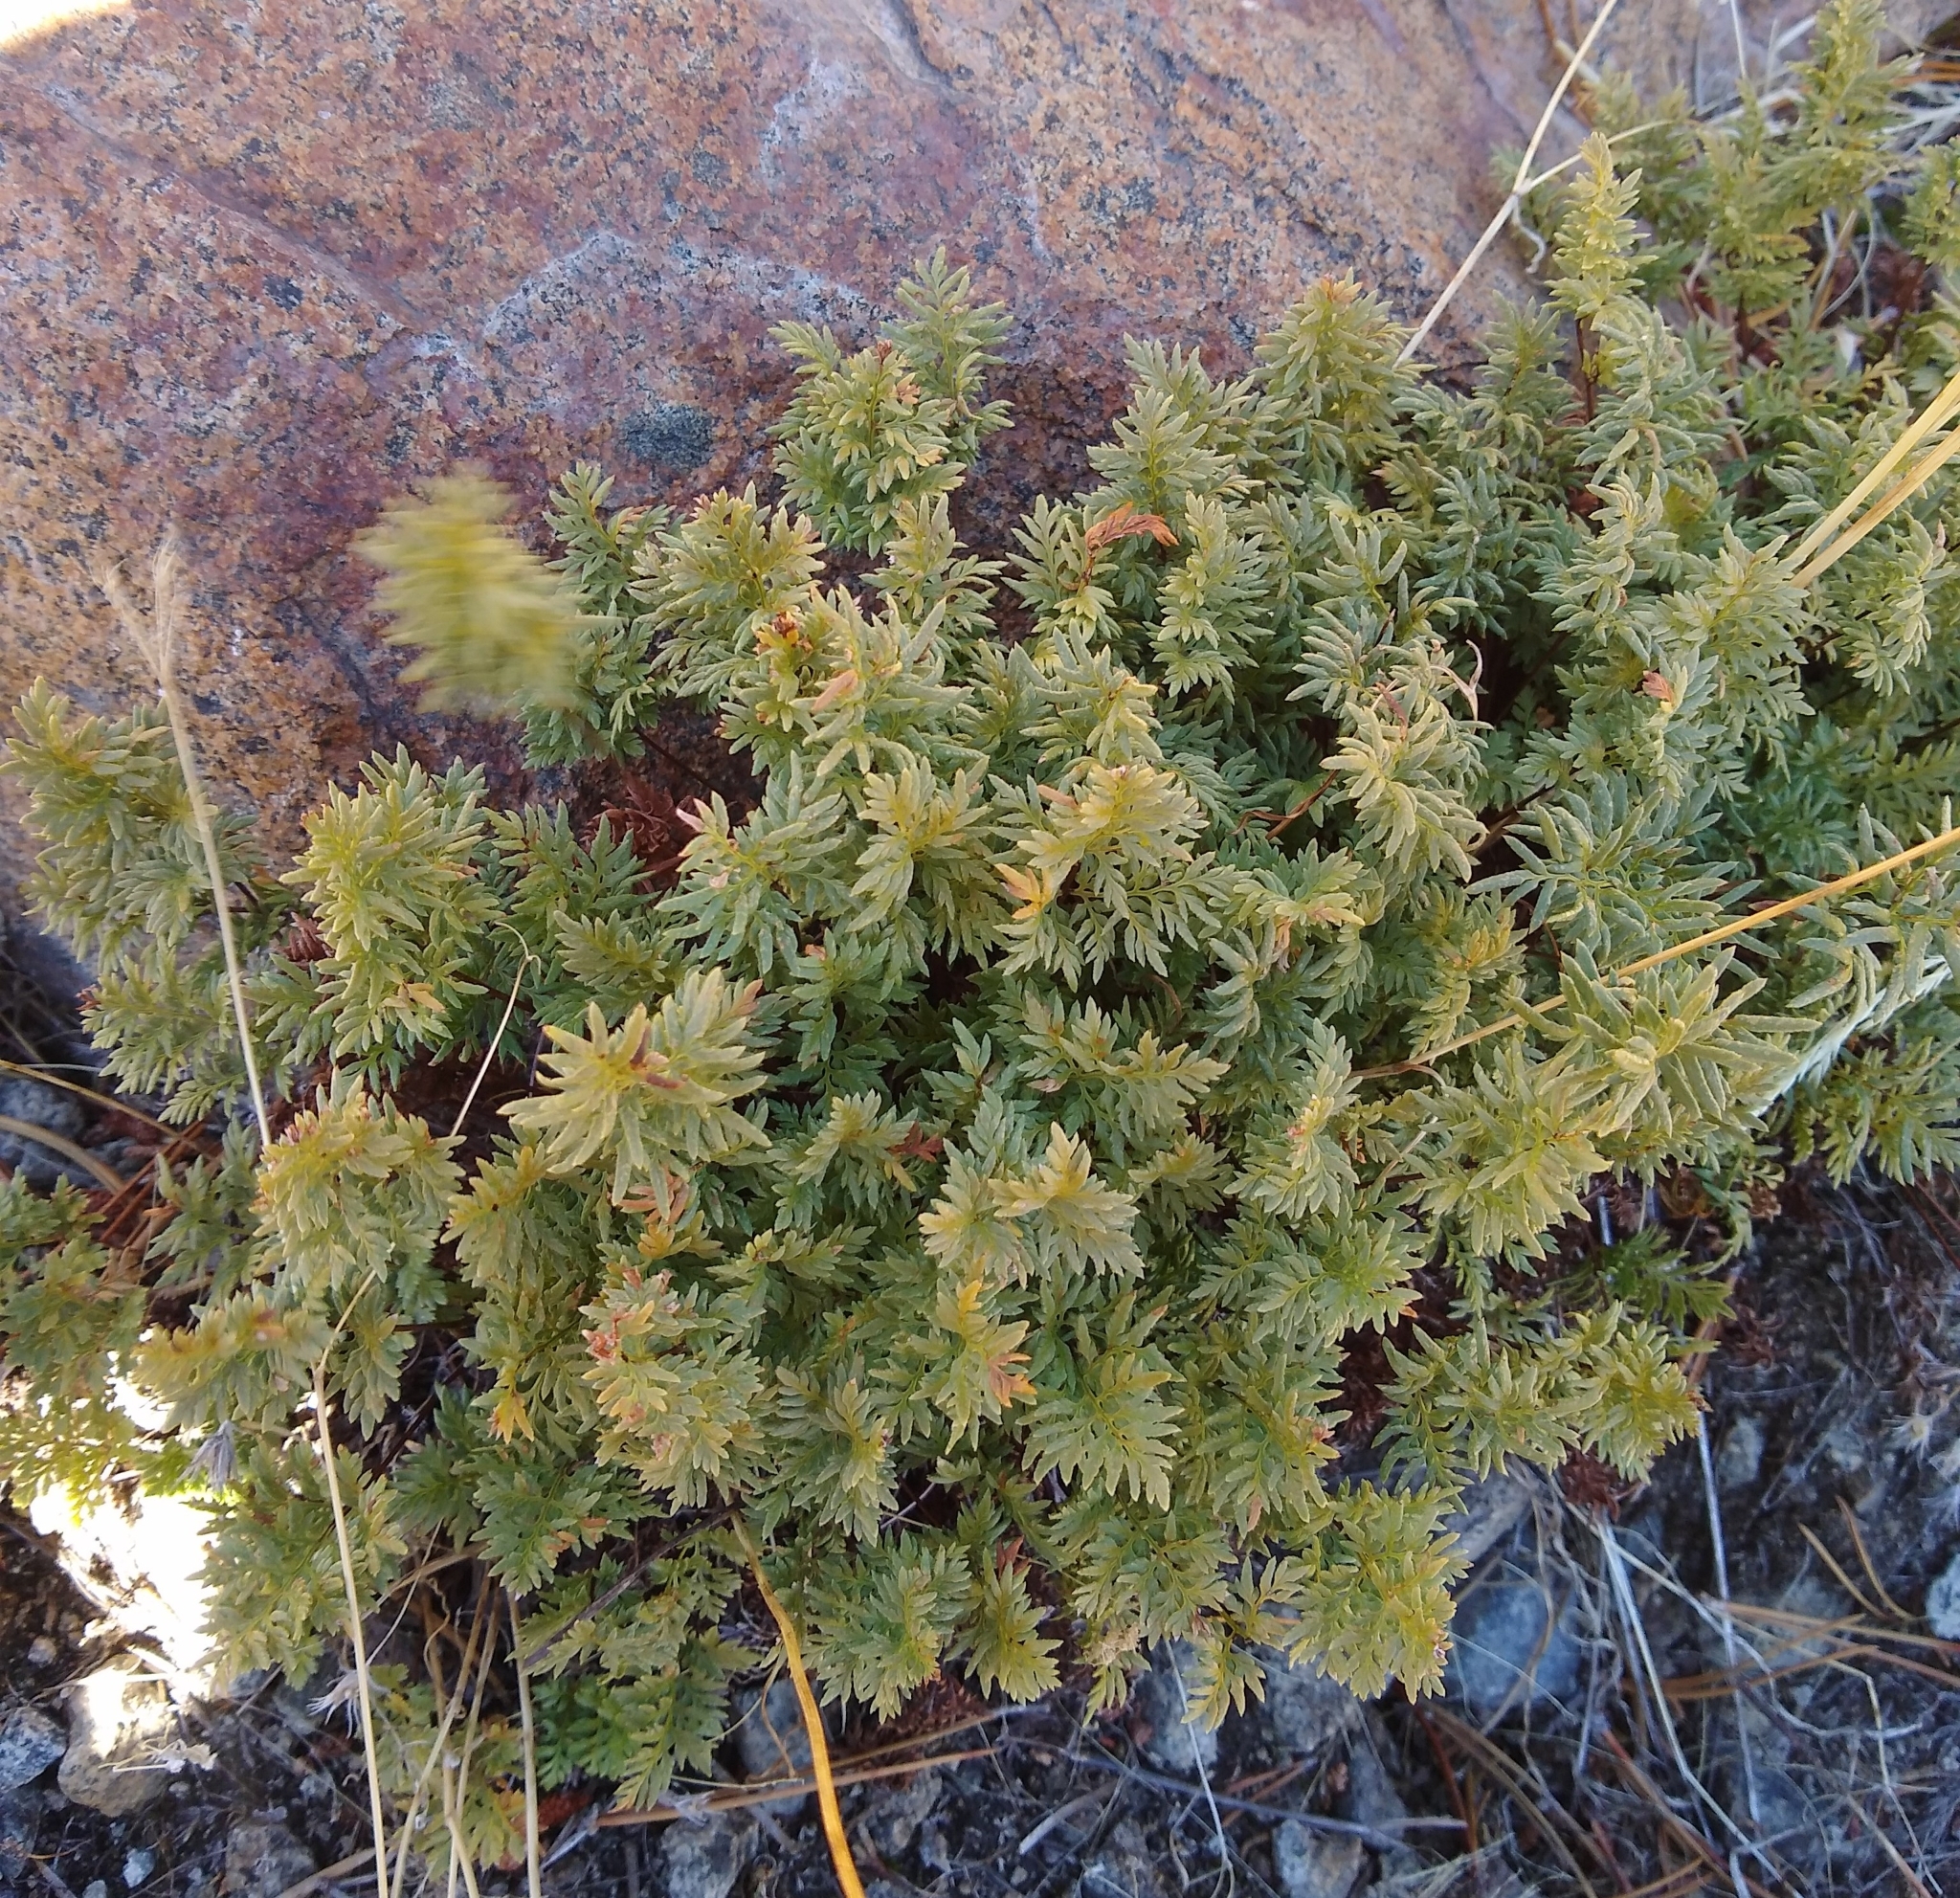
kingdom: Plantae
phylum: Tracheophyta
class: Polypodiopsida
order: Polypodiales
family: Pteridaceae
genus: Aspidotis
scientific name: Aspidotis densa
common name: Indian's dream
